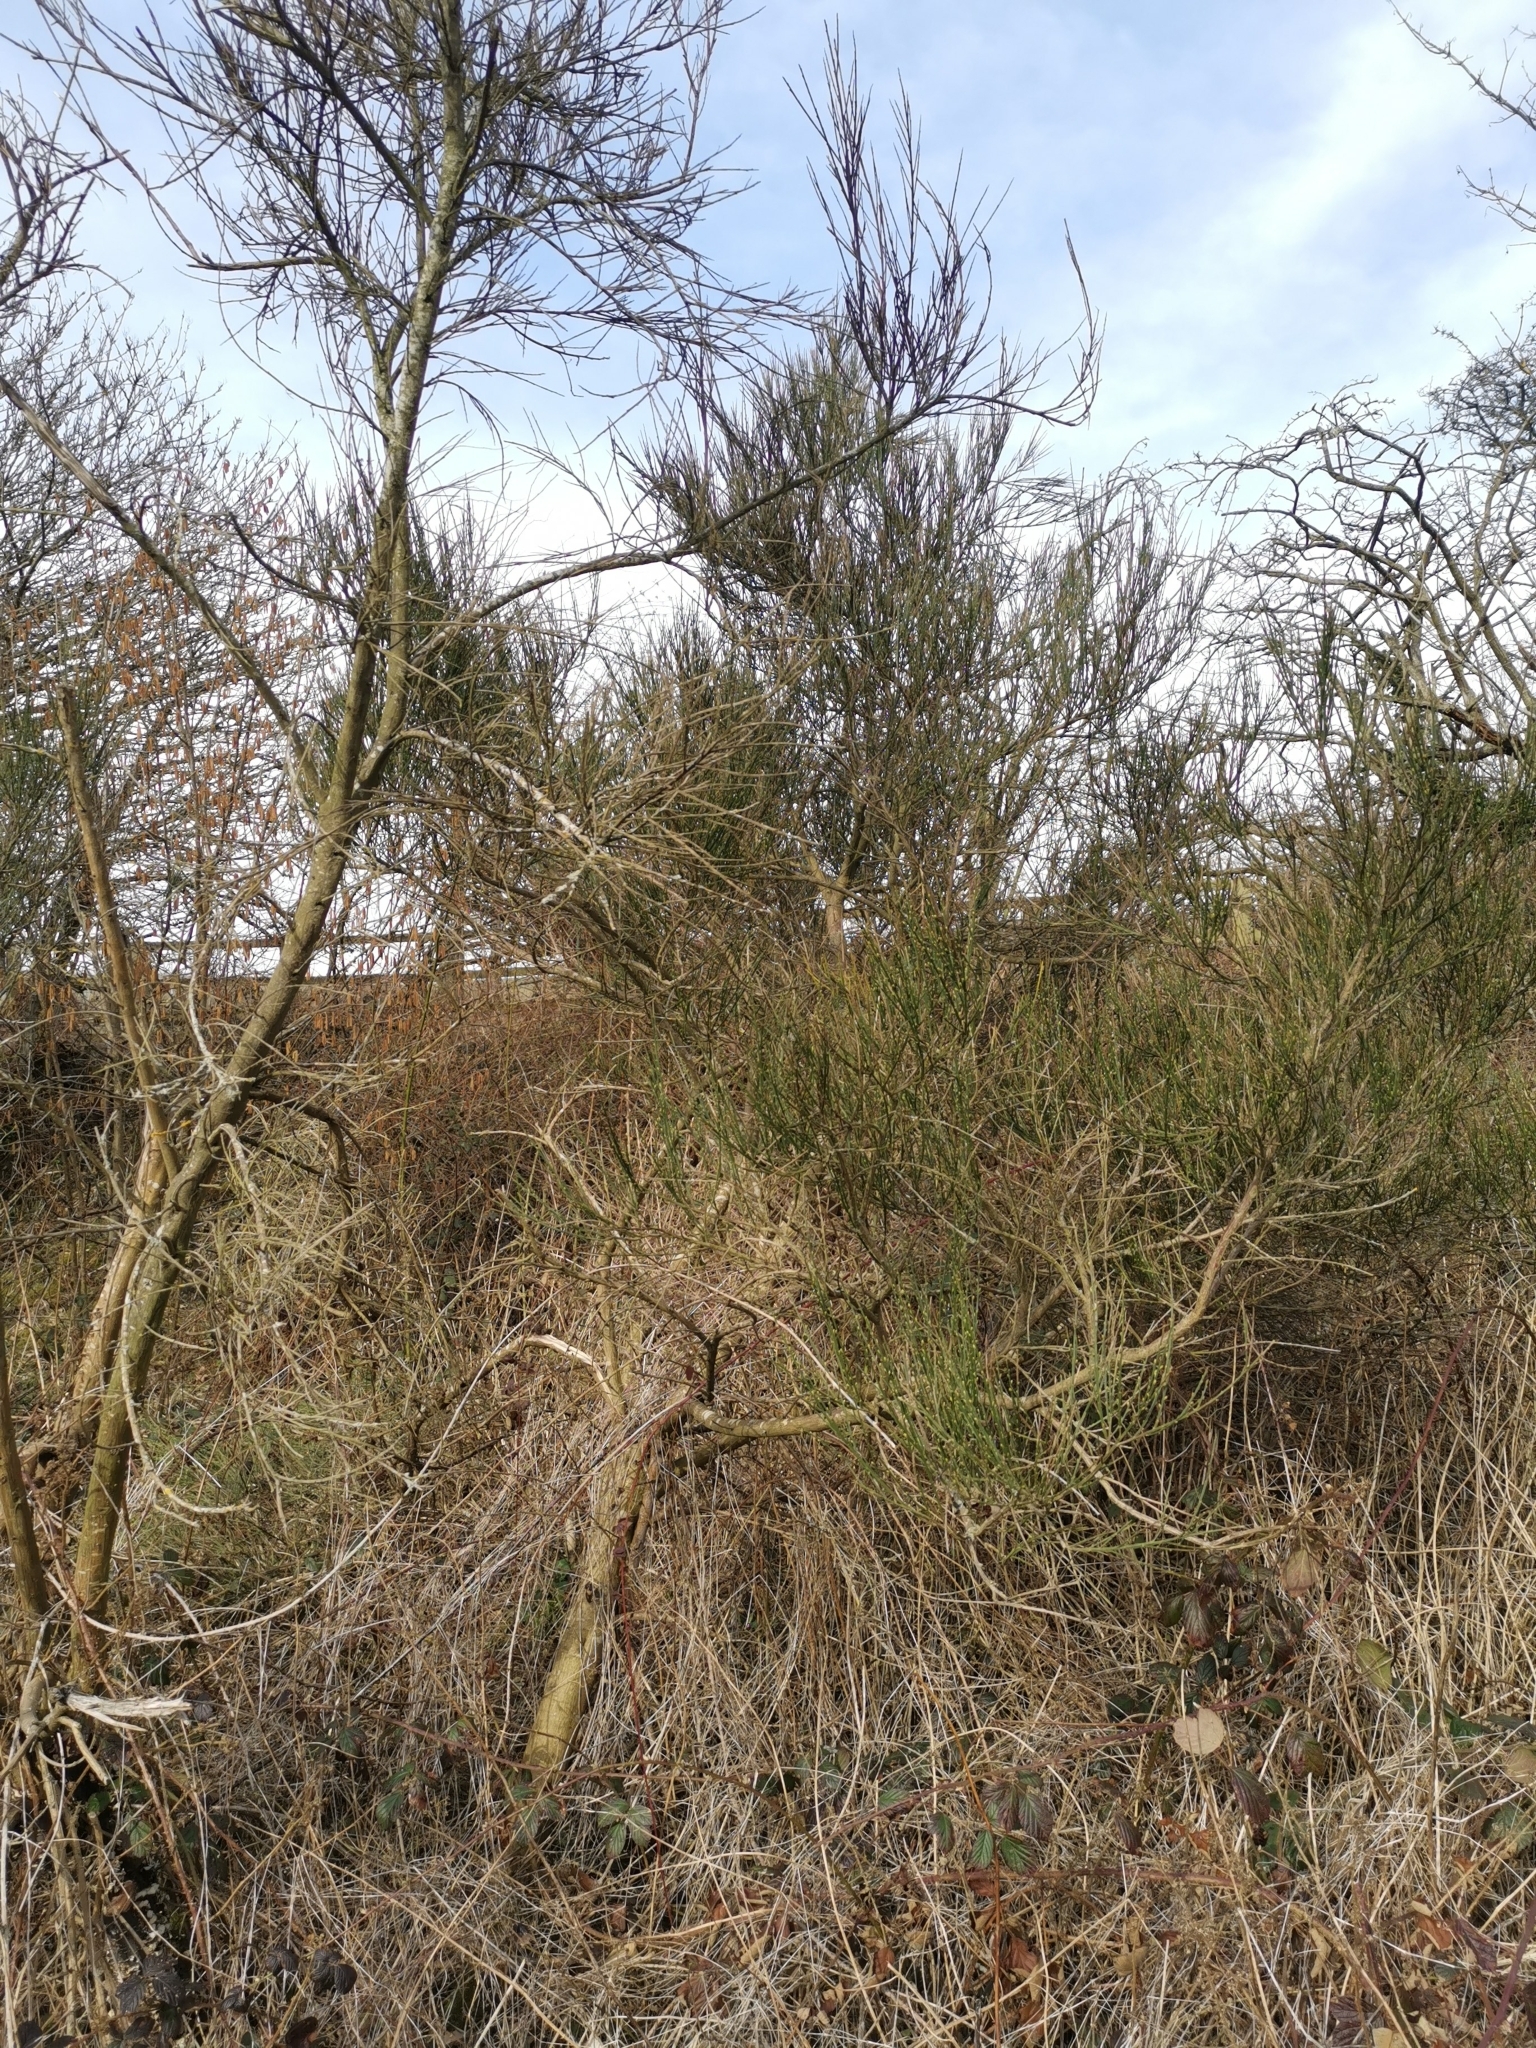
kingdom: Plantae
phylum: Tracheophyta
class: Magnoliopsida
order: Fabales
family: Fabaceae
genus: Cytisus
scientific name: Cytisus scoparius
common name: Scotch broom
